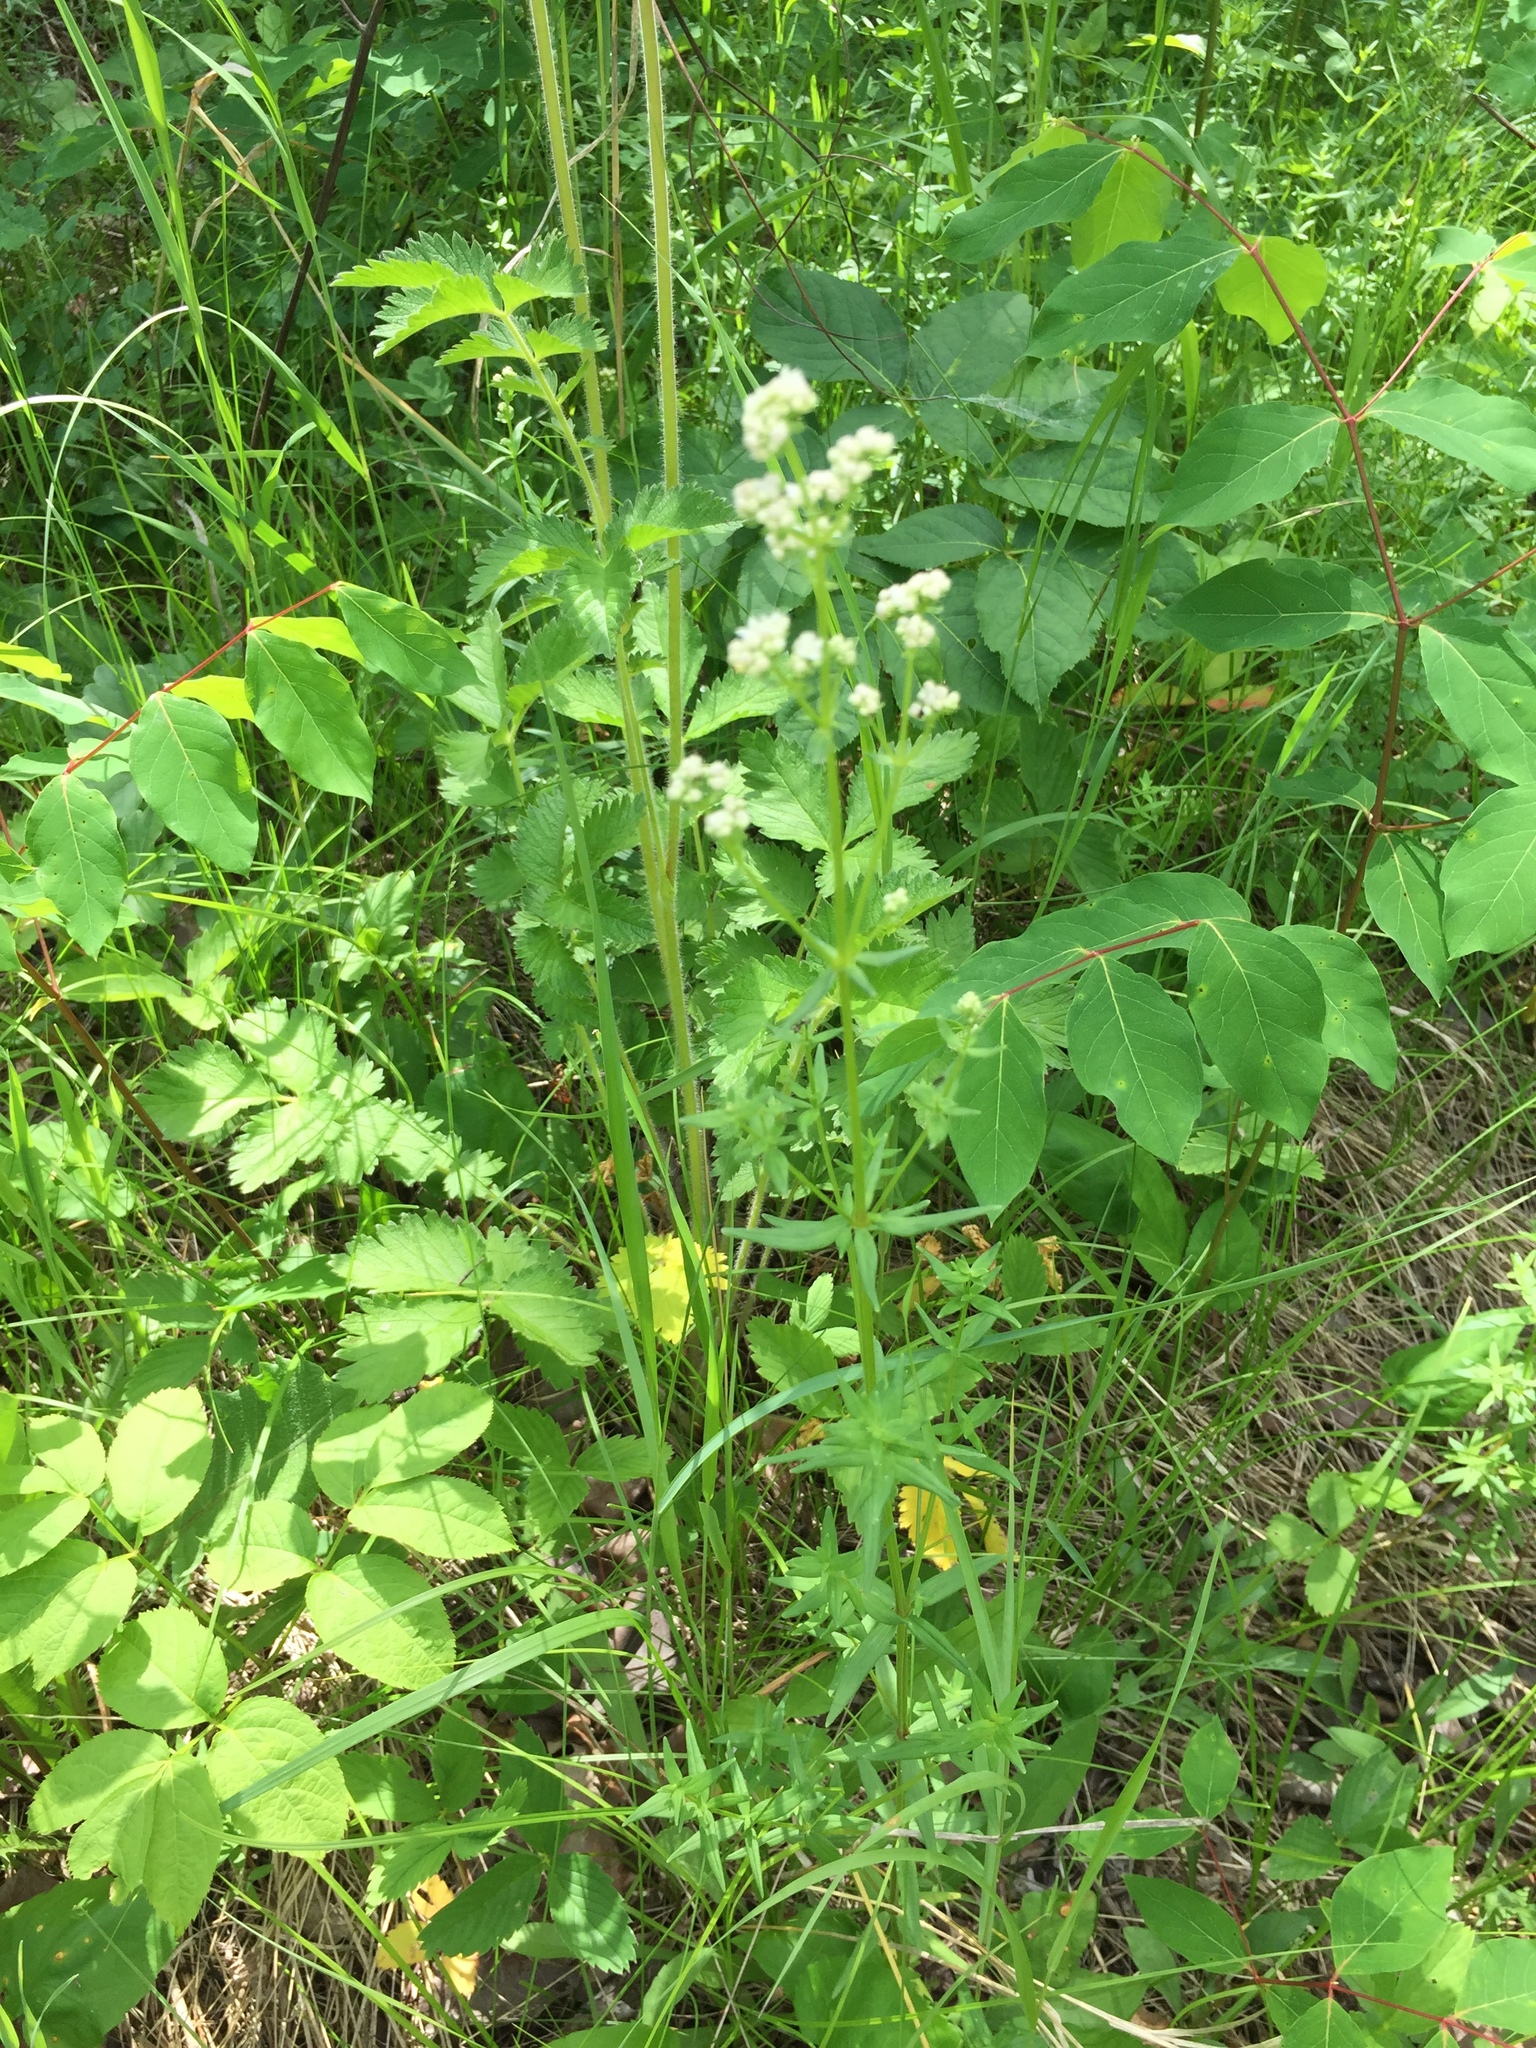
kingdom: Plantae
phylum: Tracheophyta
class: Magnoliopsida
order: Gentianales
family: Rubiaceae
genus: Galium
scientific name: Galium boreale
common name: Northern bedstraw
